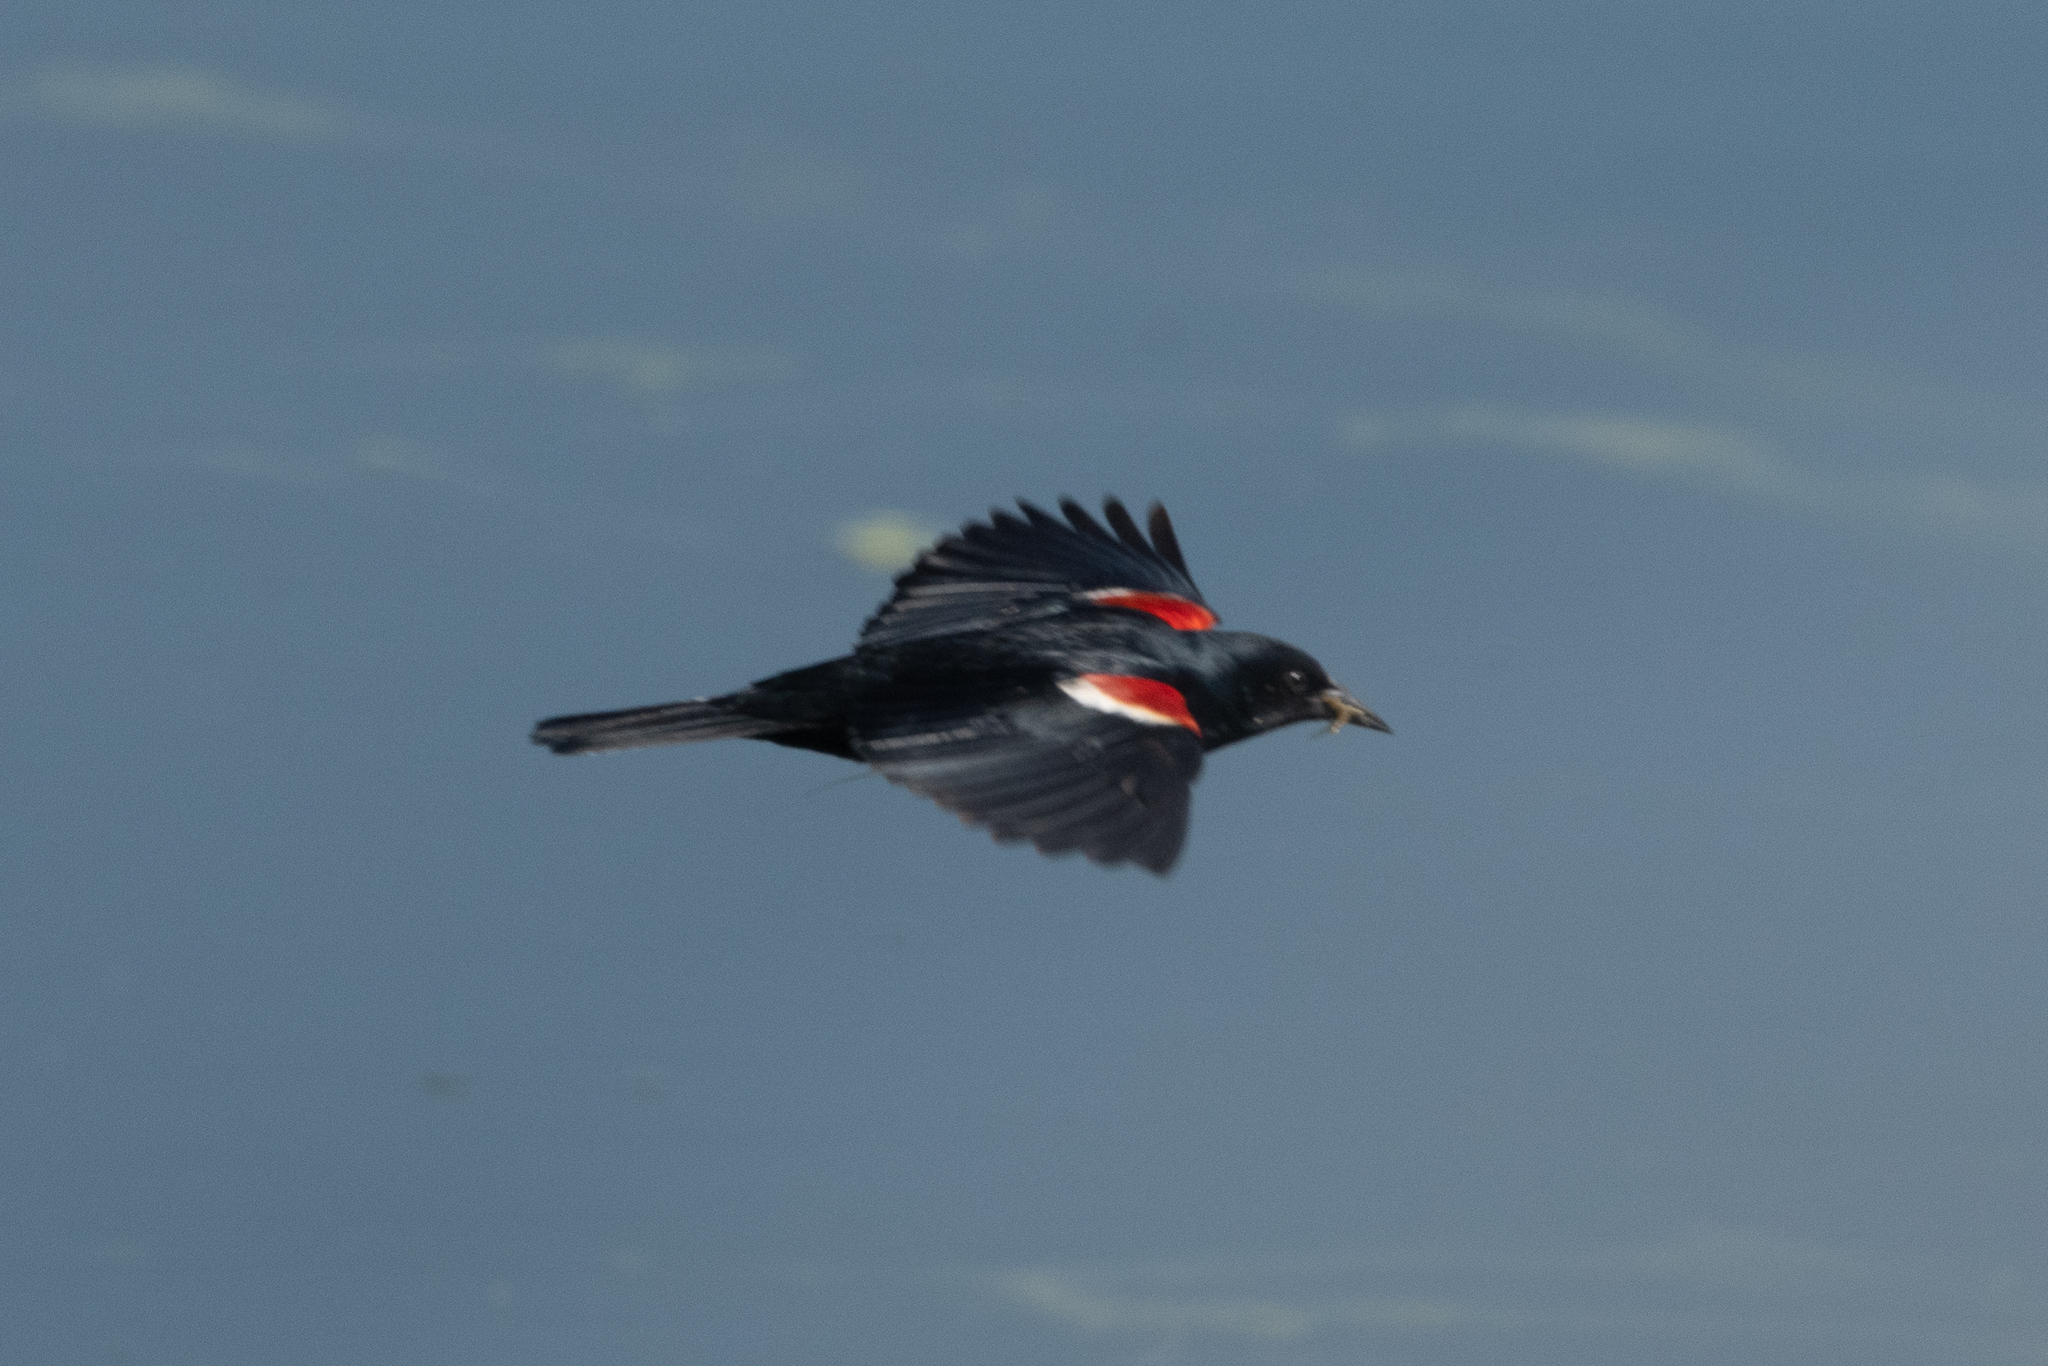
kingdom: Animalia
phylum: Chordata
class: Aves
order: Passeriformes
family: Icteridae
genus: Agelaius
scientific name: Agelaius tricolor
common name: Tricolored blackbird
